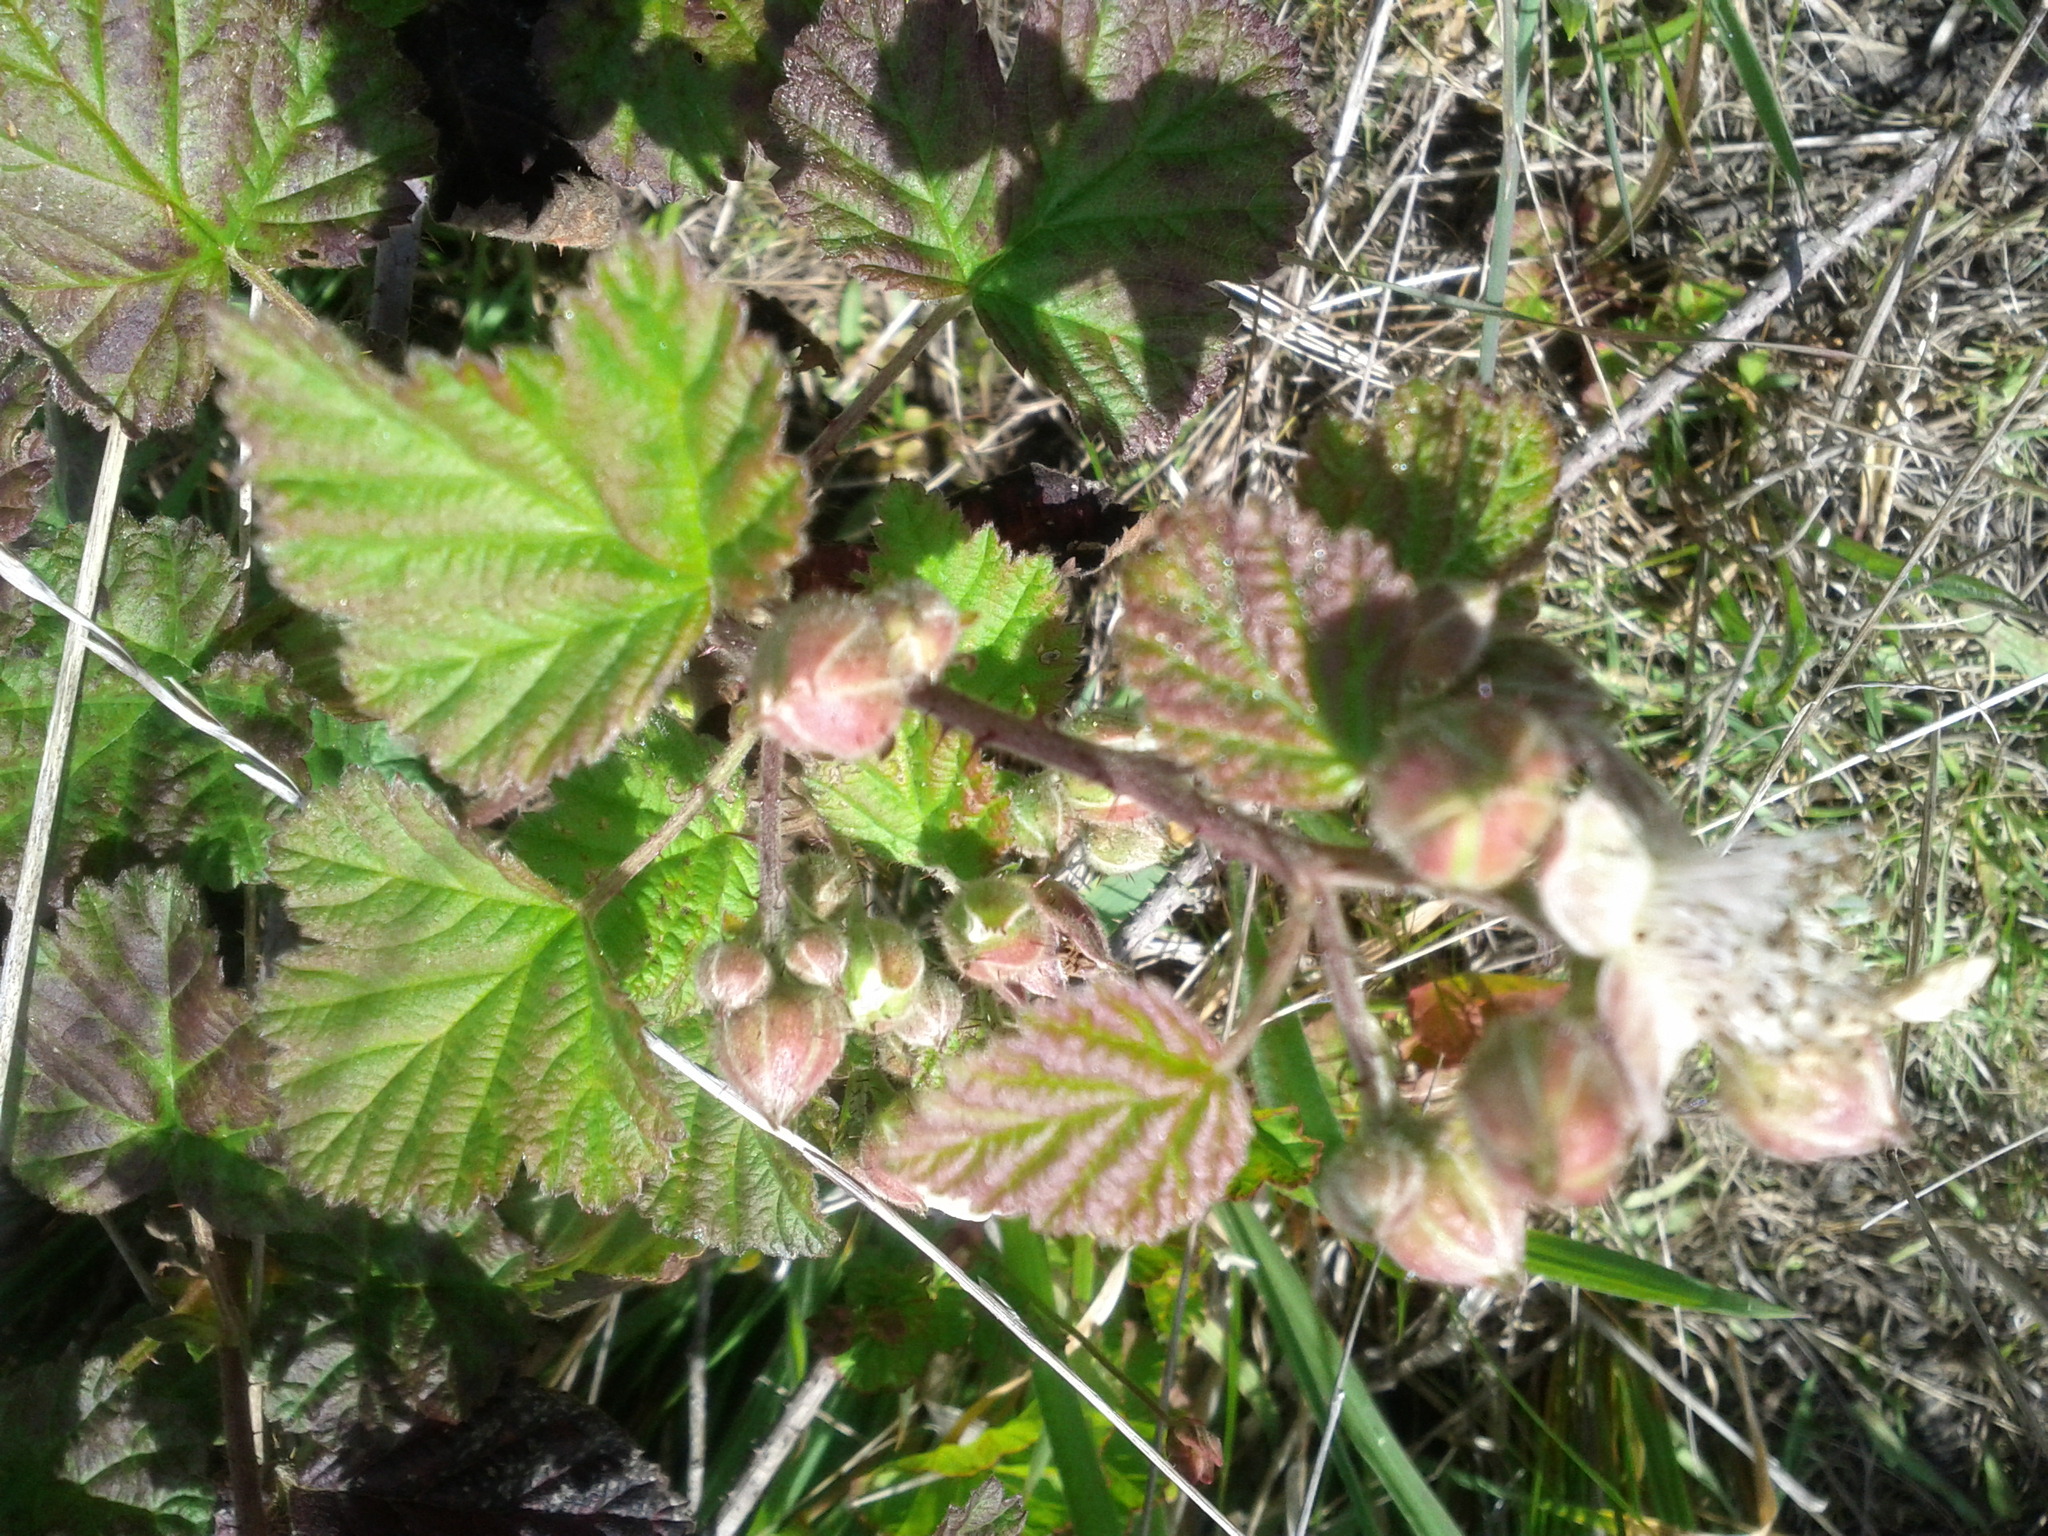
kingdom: Plantae
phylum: Tracheophyta
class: Magnoliopsida
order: Rosales
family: Rosaceae
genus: Rubus
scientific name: Rubus ursinus
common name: Pacific blackberry
